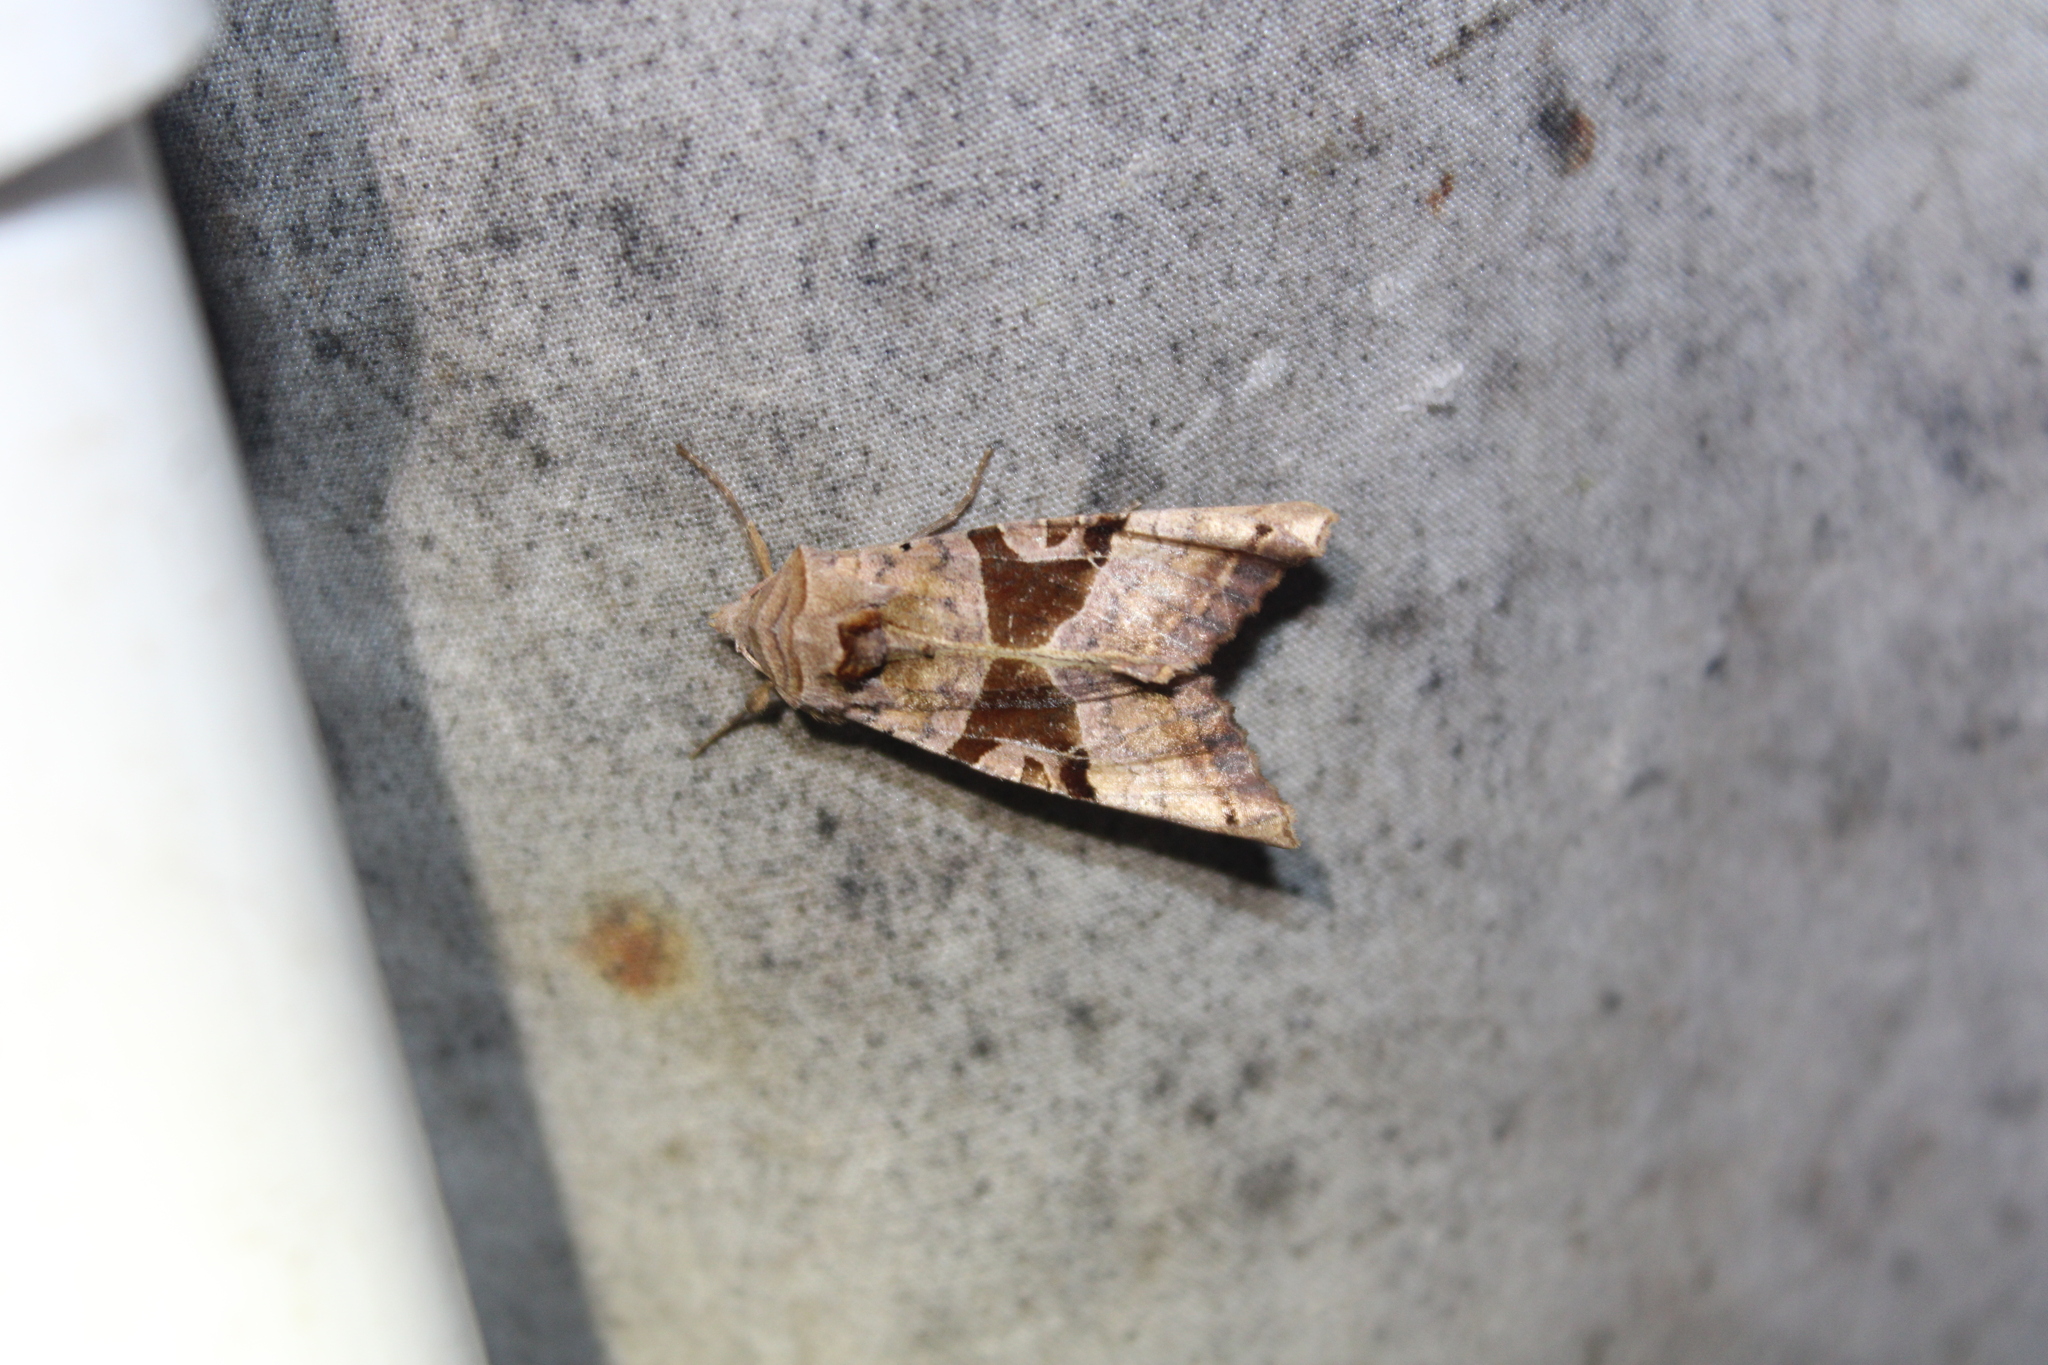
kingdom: Animalia
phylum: Arthropoda
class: Insecta
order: Lepidoptera
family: Noctuidae
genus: Phlogophora
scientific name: Phlogophora periculosa
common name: Brown angle shades
